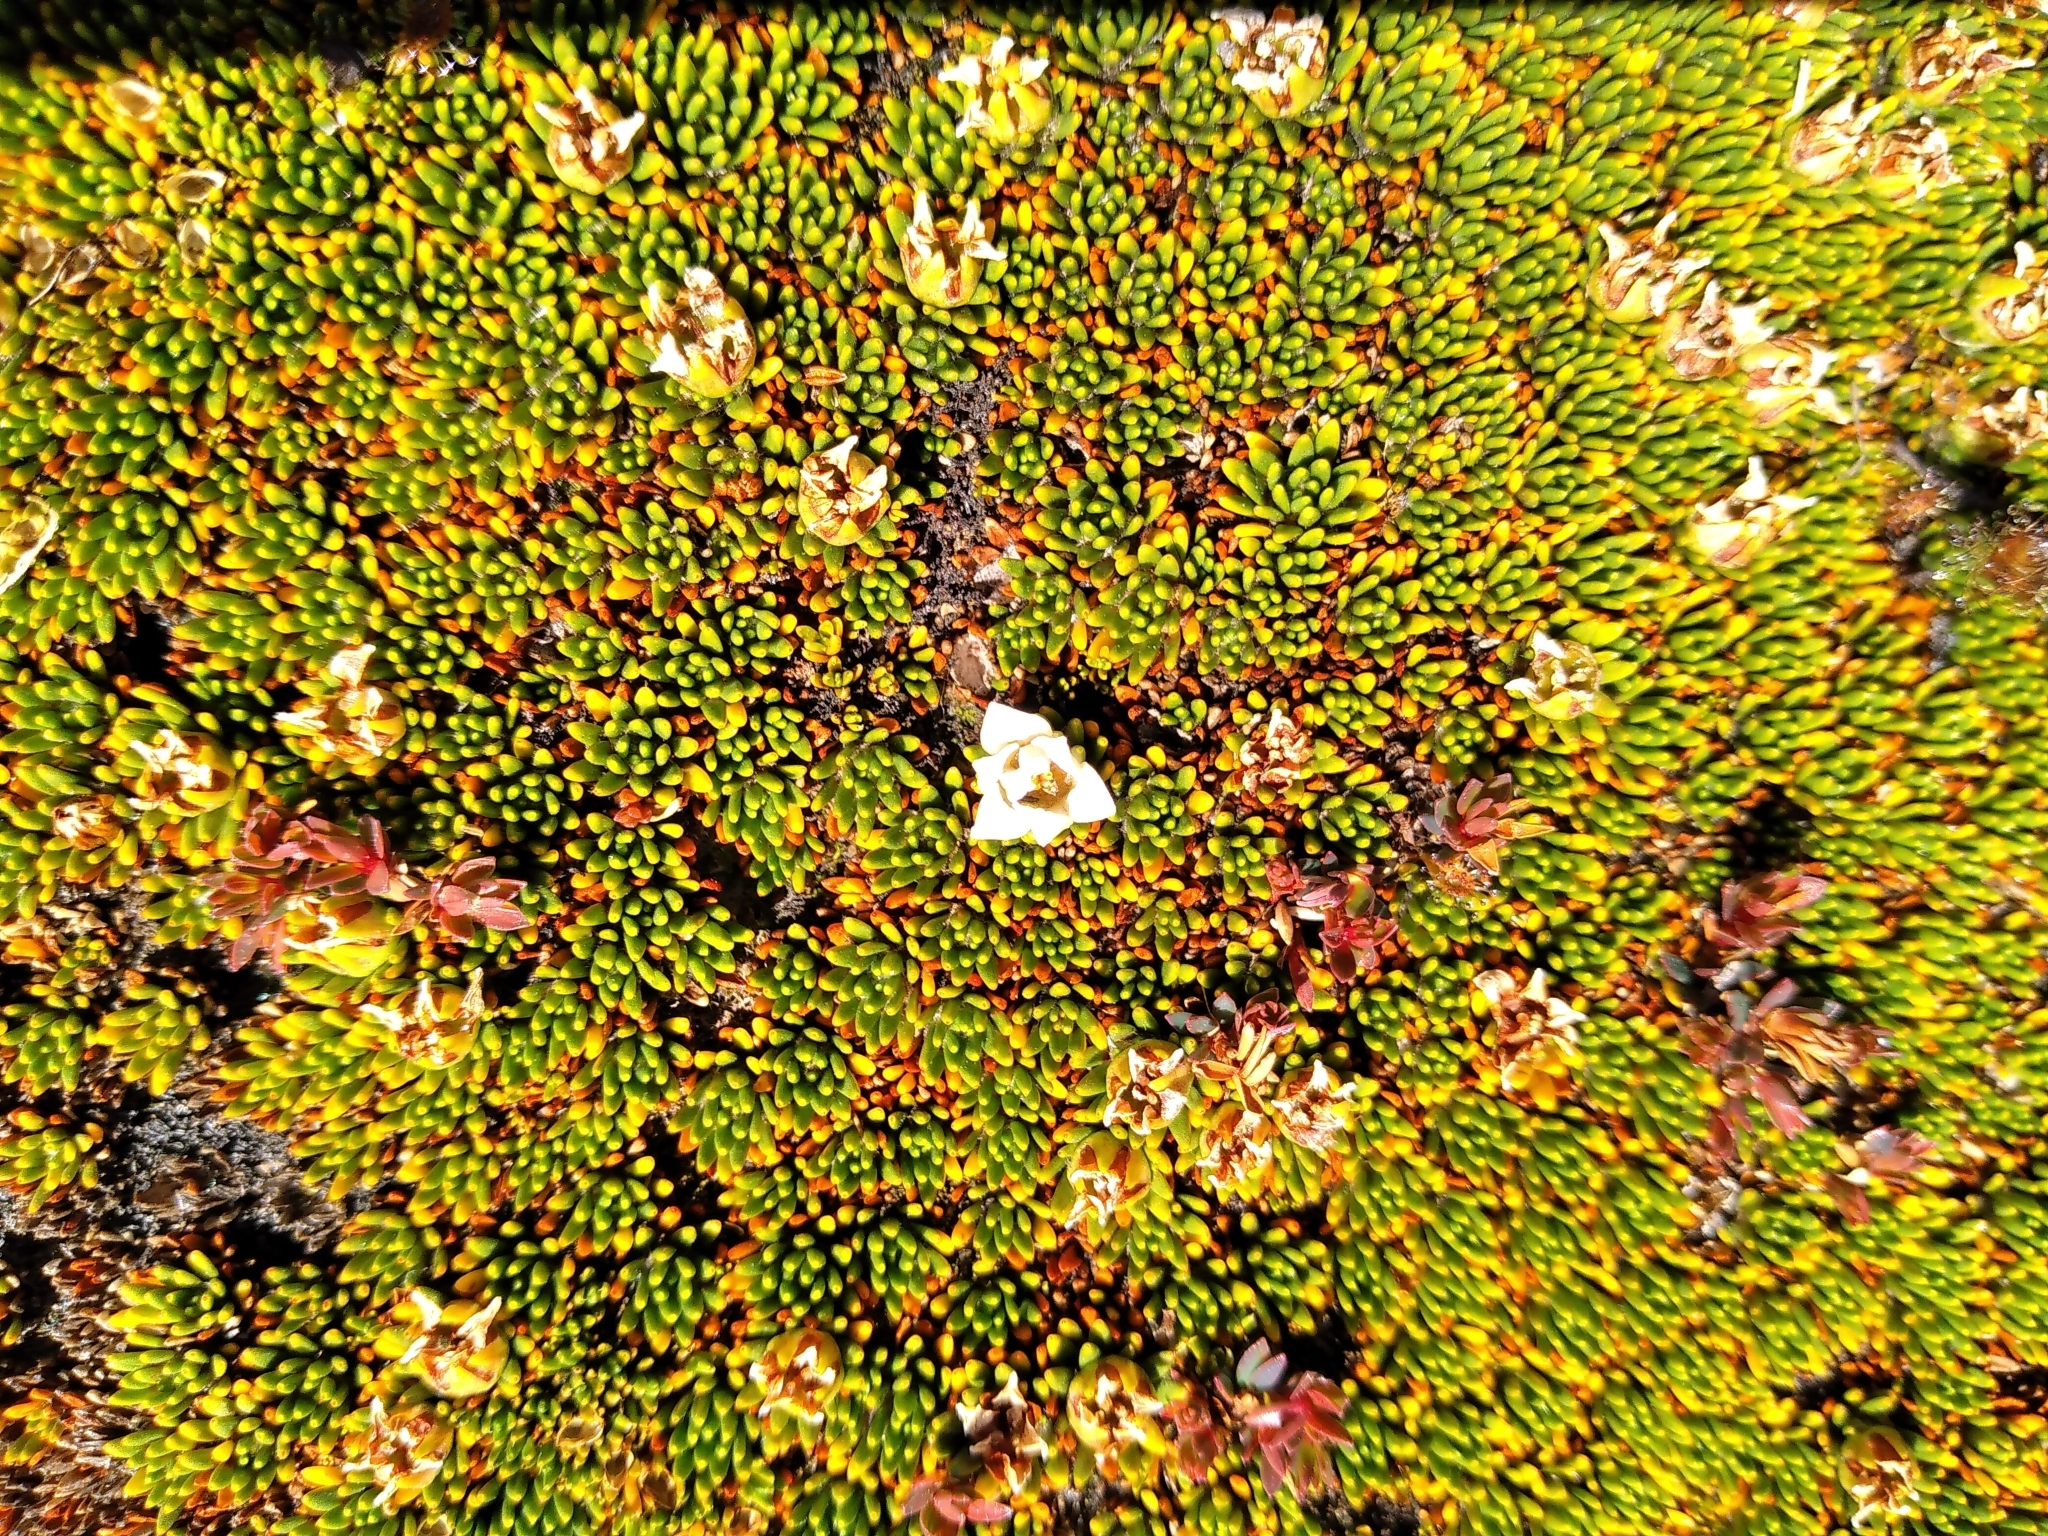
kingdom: Plantae
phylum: Tracheophyta
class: Magnoliopsida
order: Asterales
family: Stylidiaceae
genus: Donatia
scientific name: Donatia novae-zelandiae
